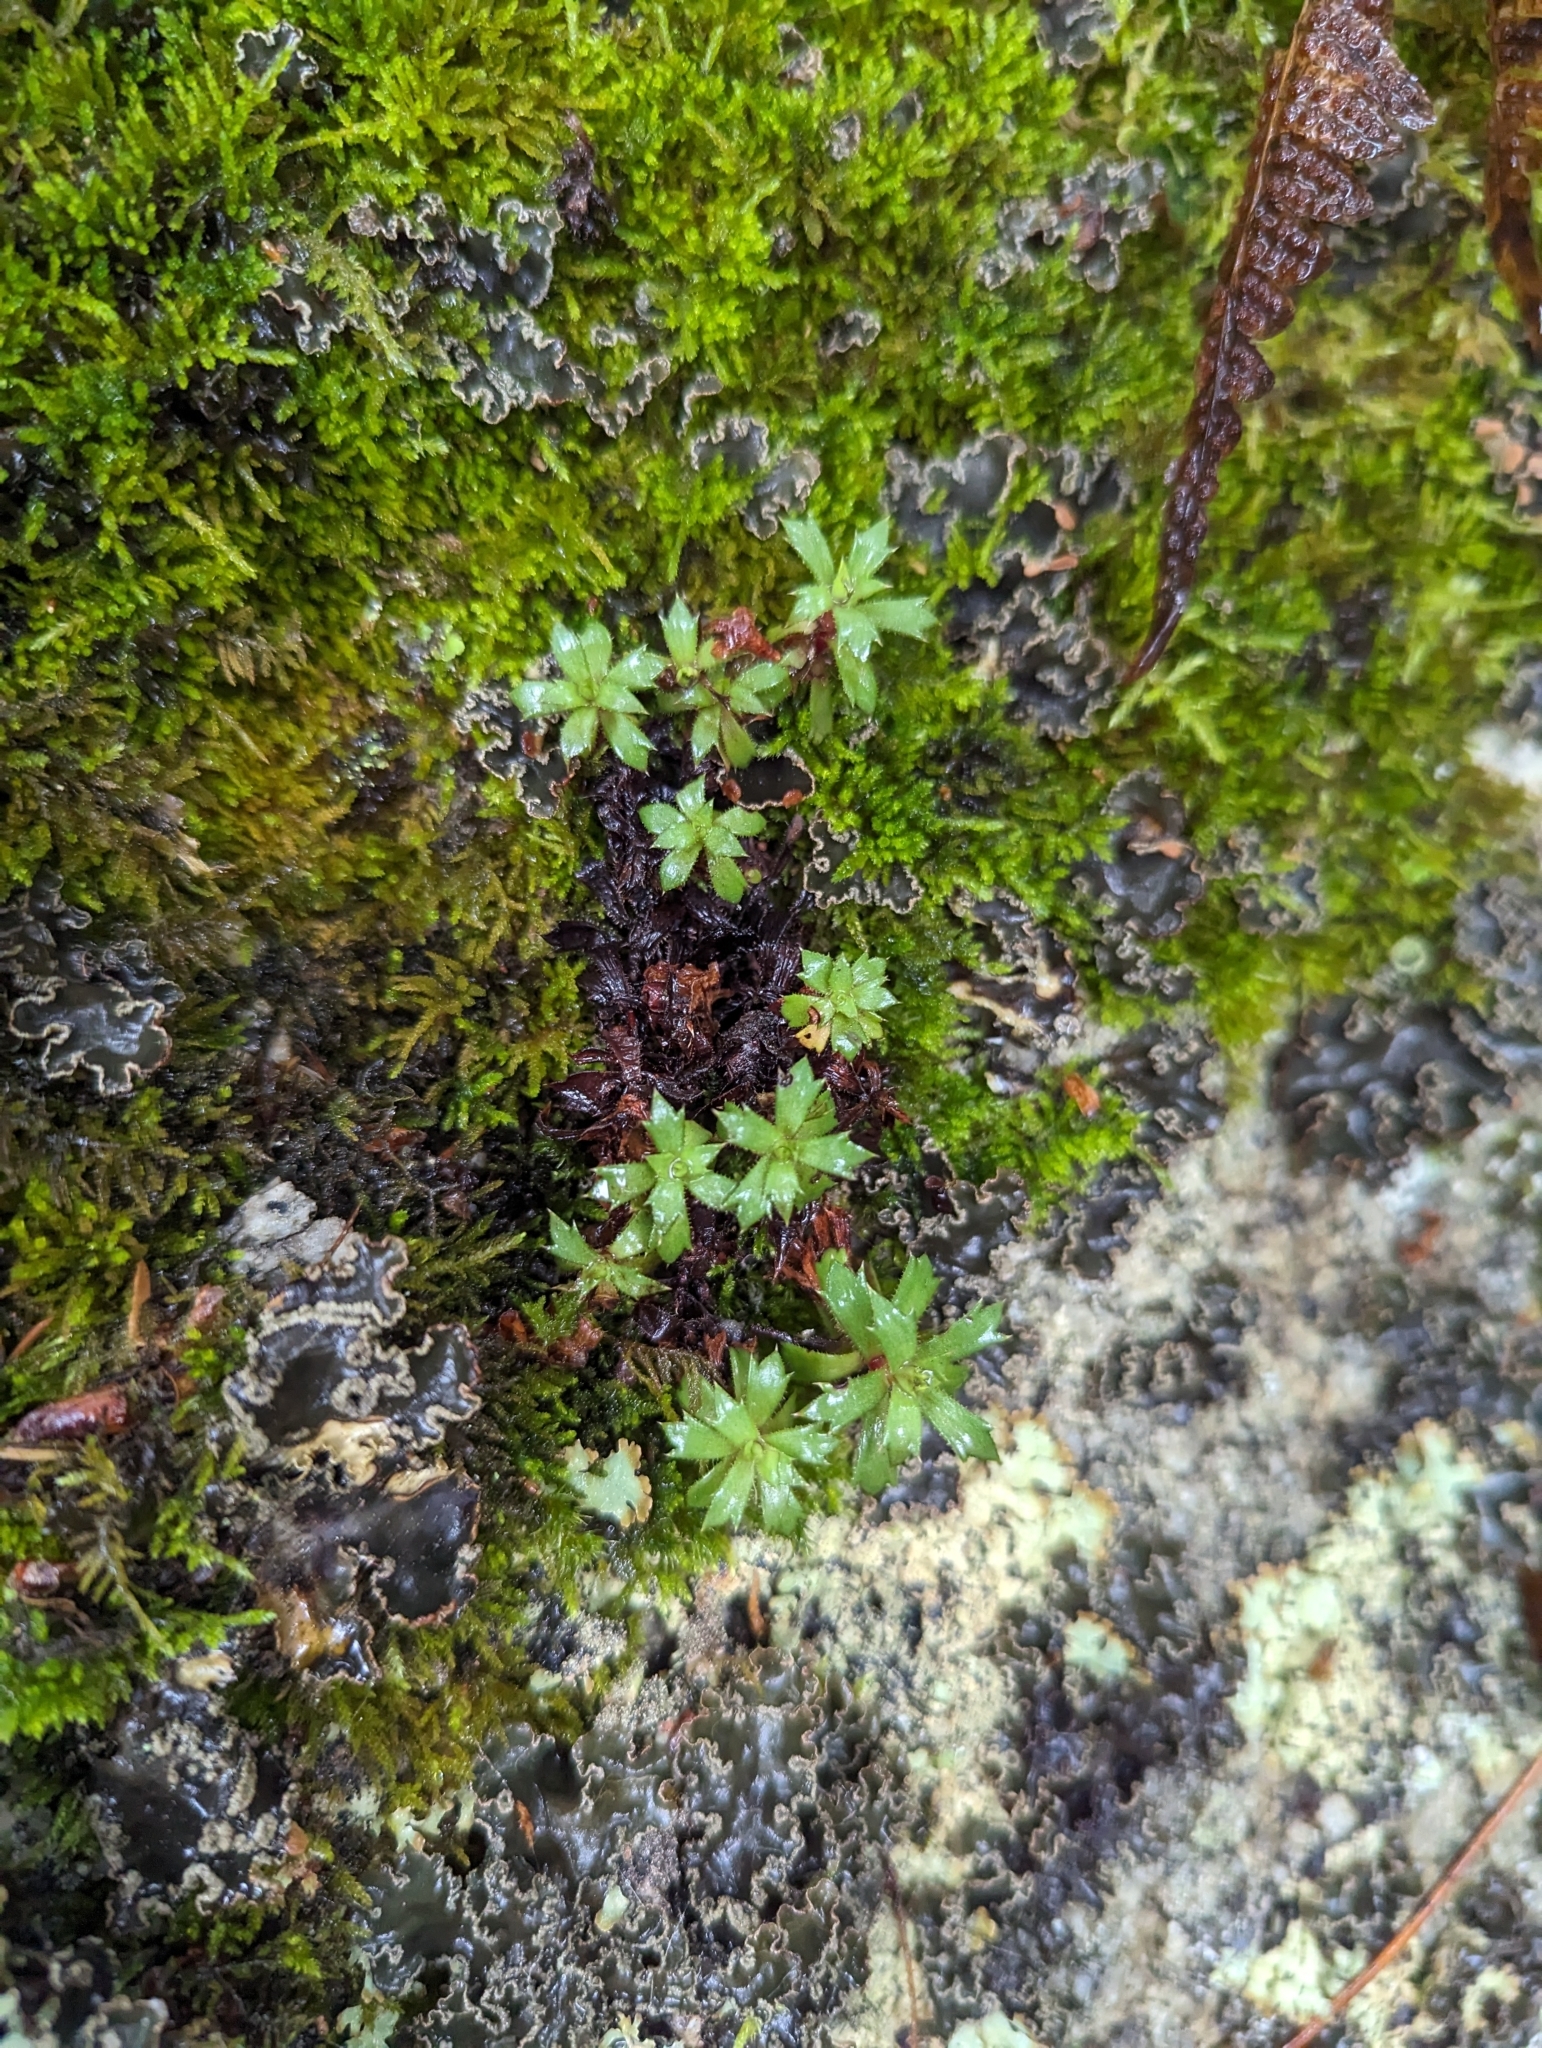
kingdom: Plantae
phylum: Tracheophyta
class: Magnoliopsida
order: Saxifragales
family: Saxifragaceae
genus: Saxifraga
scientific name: Saxifraga tricuspidata
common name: Prickly saxifrage
